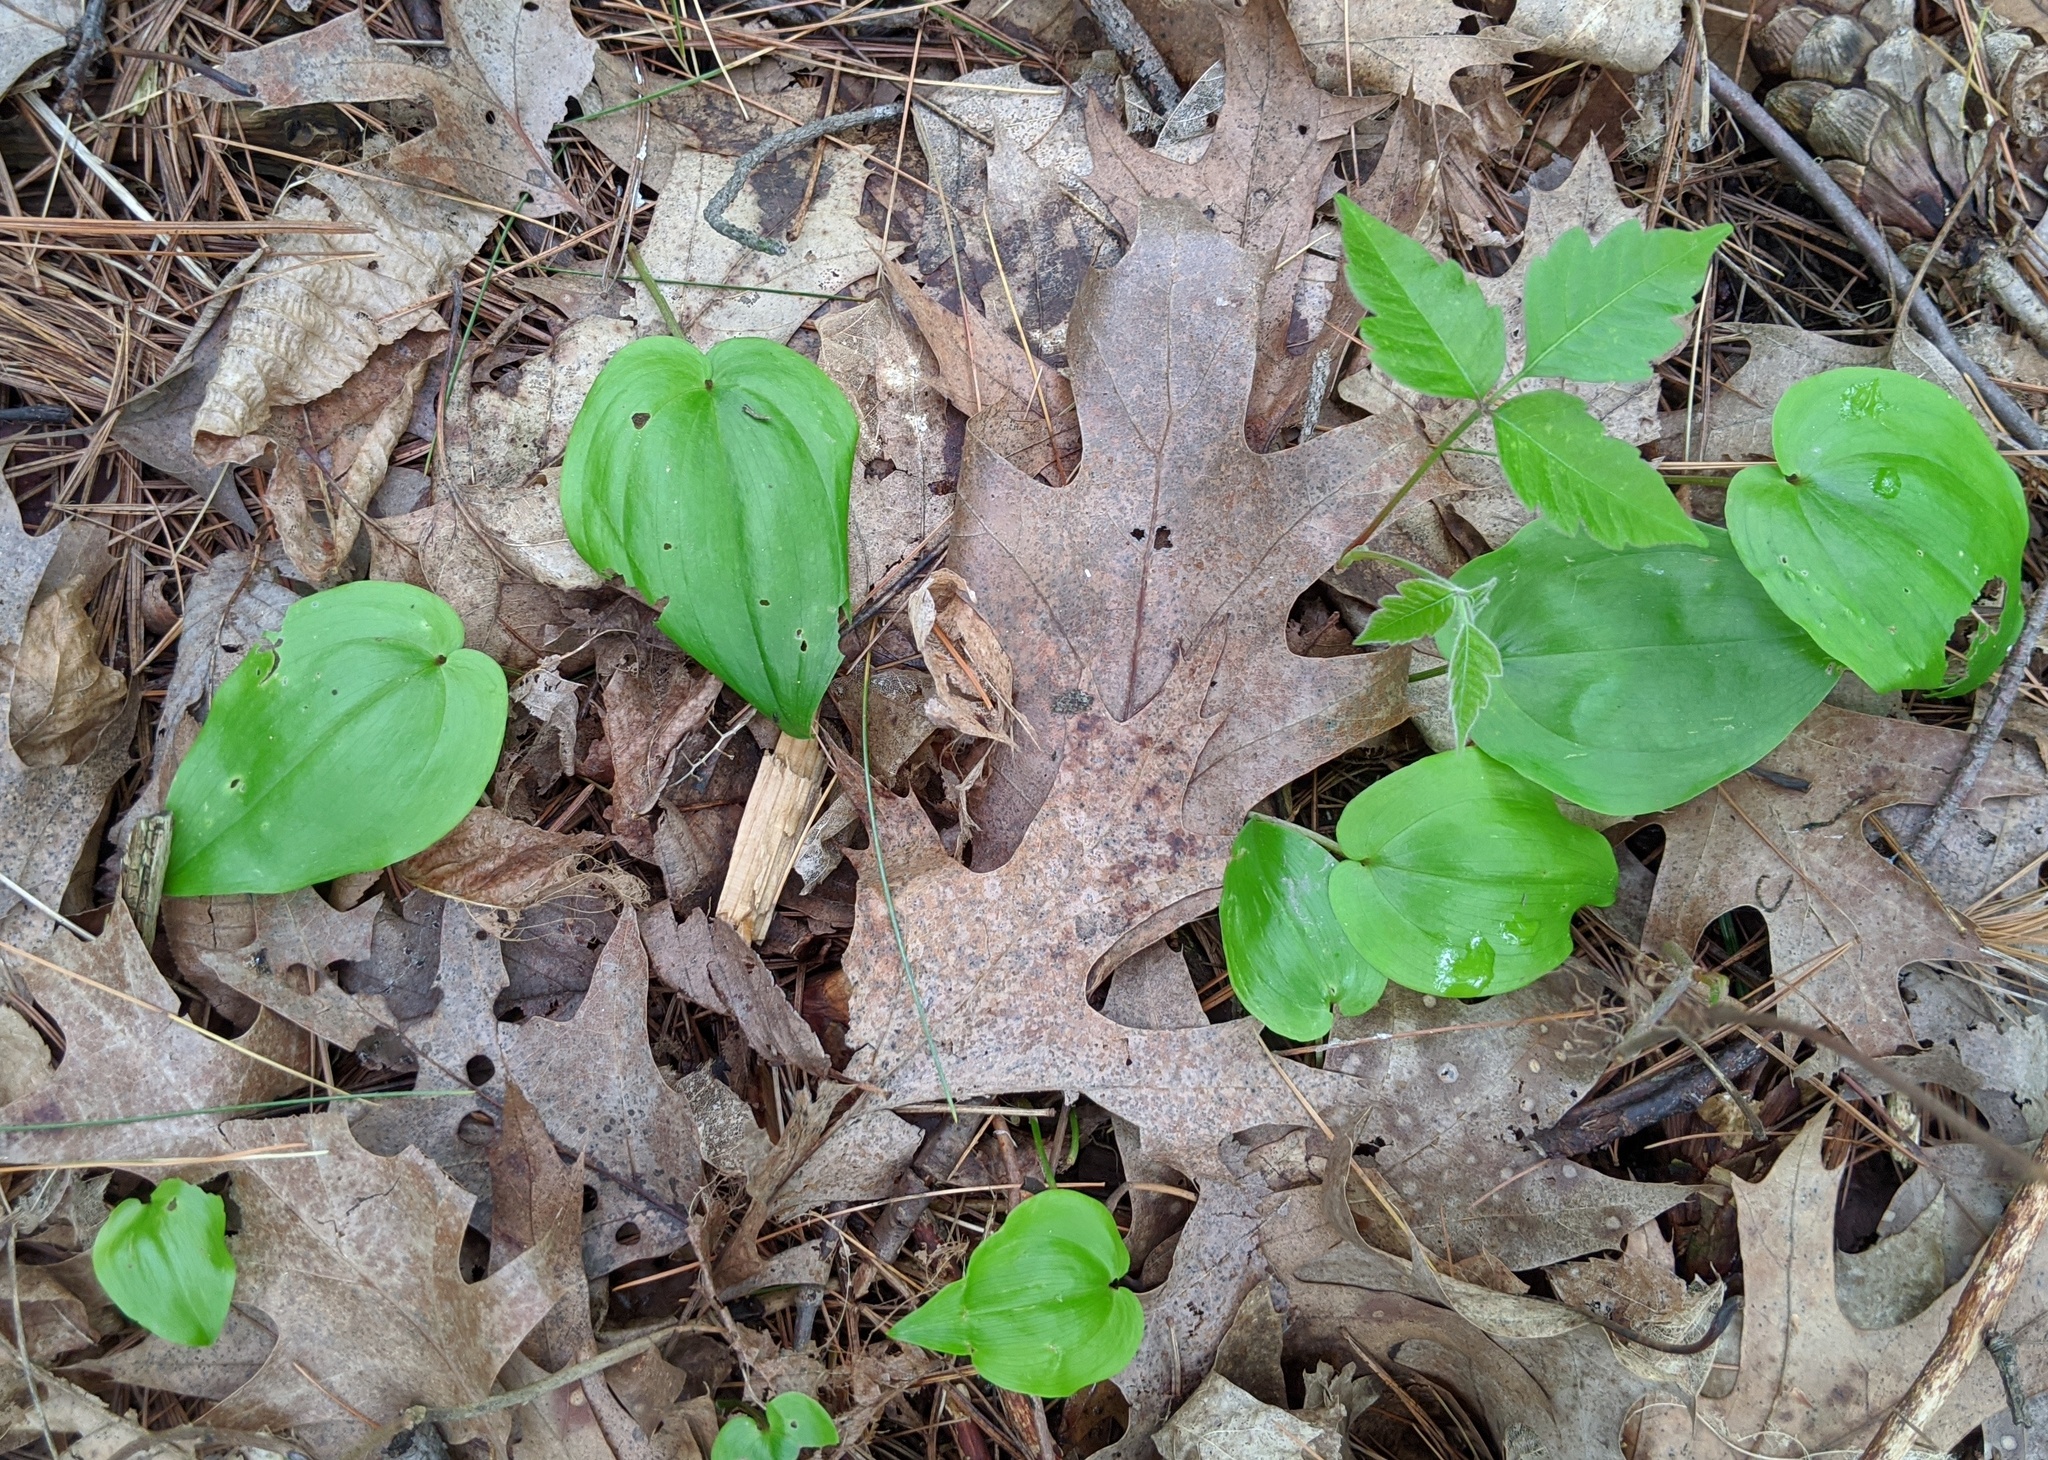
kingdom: Plantae
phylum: Tracheophyta
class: Liliopsida
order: Asparagales
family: Asparagaceae
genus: Maianthemum
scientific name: Maianthemum canadense
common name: False lily-of-the-valley
